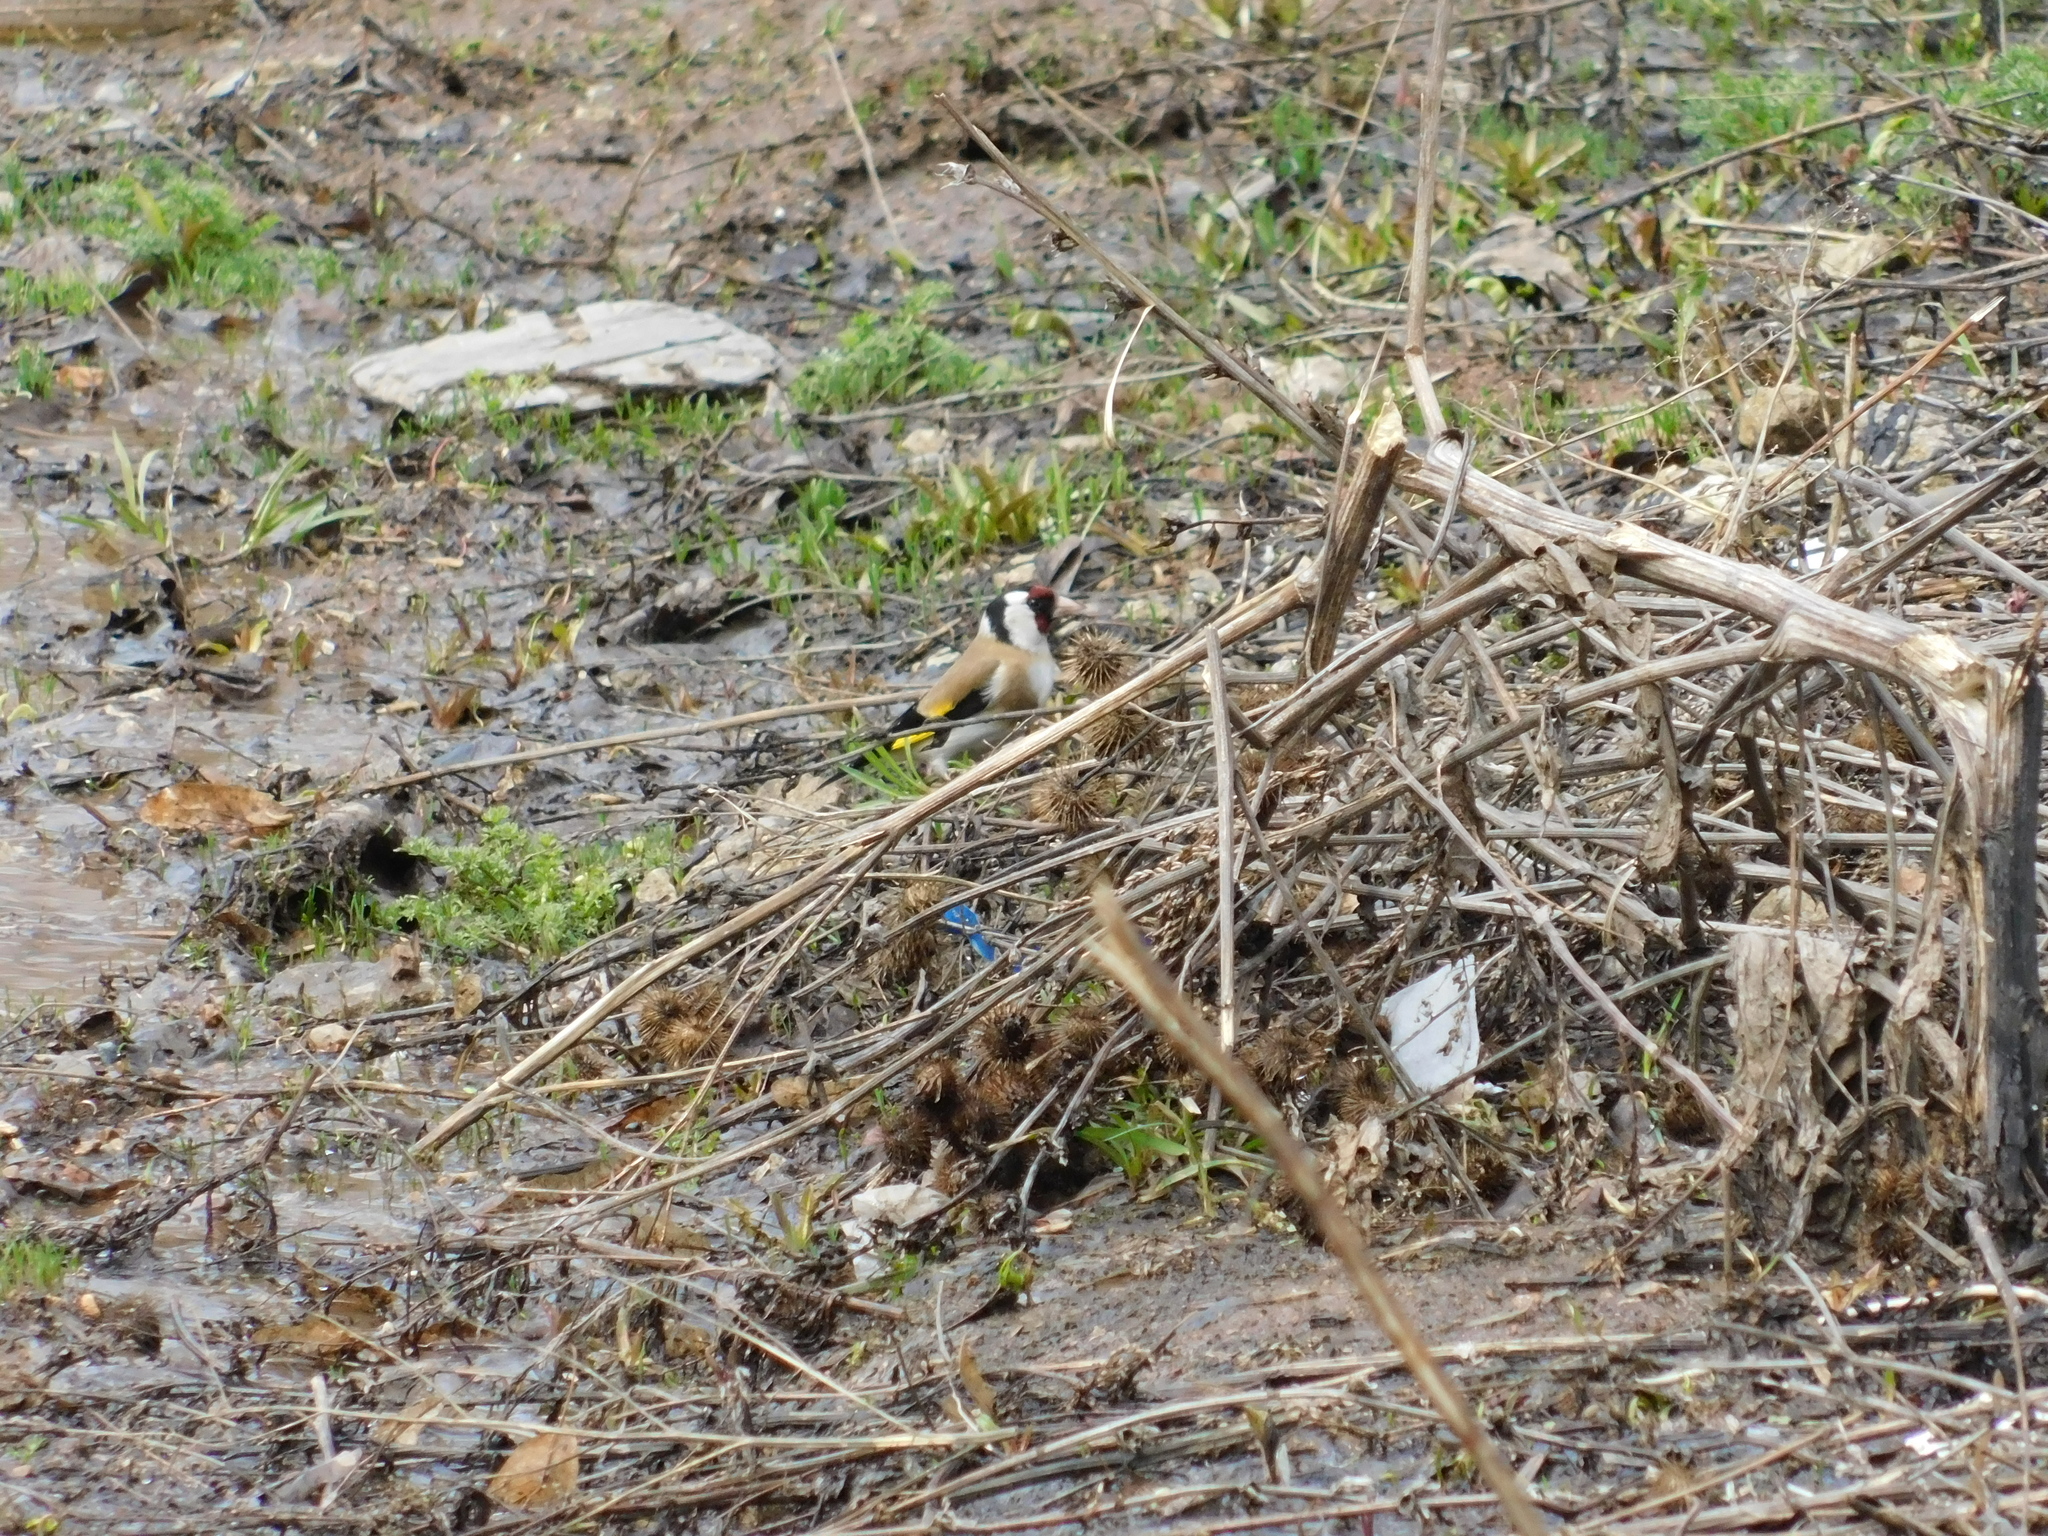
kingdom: Animalia
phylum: Chordata
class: Aves
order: Passeriformes
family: Fringillidae
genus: Carduelis
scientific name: Carduelis carduelis
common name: European goldfinch
